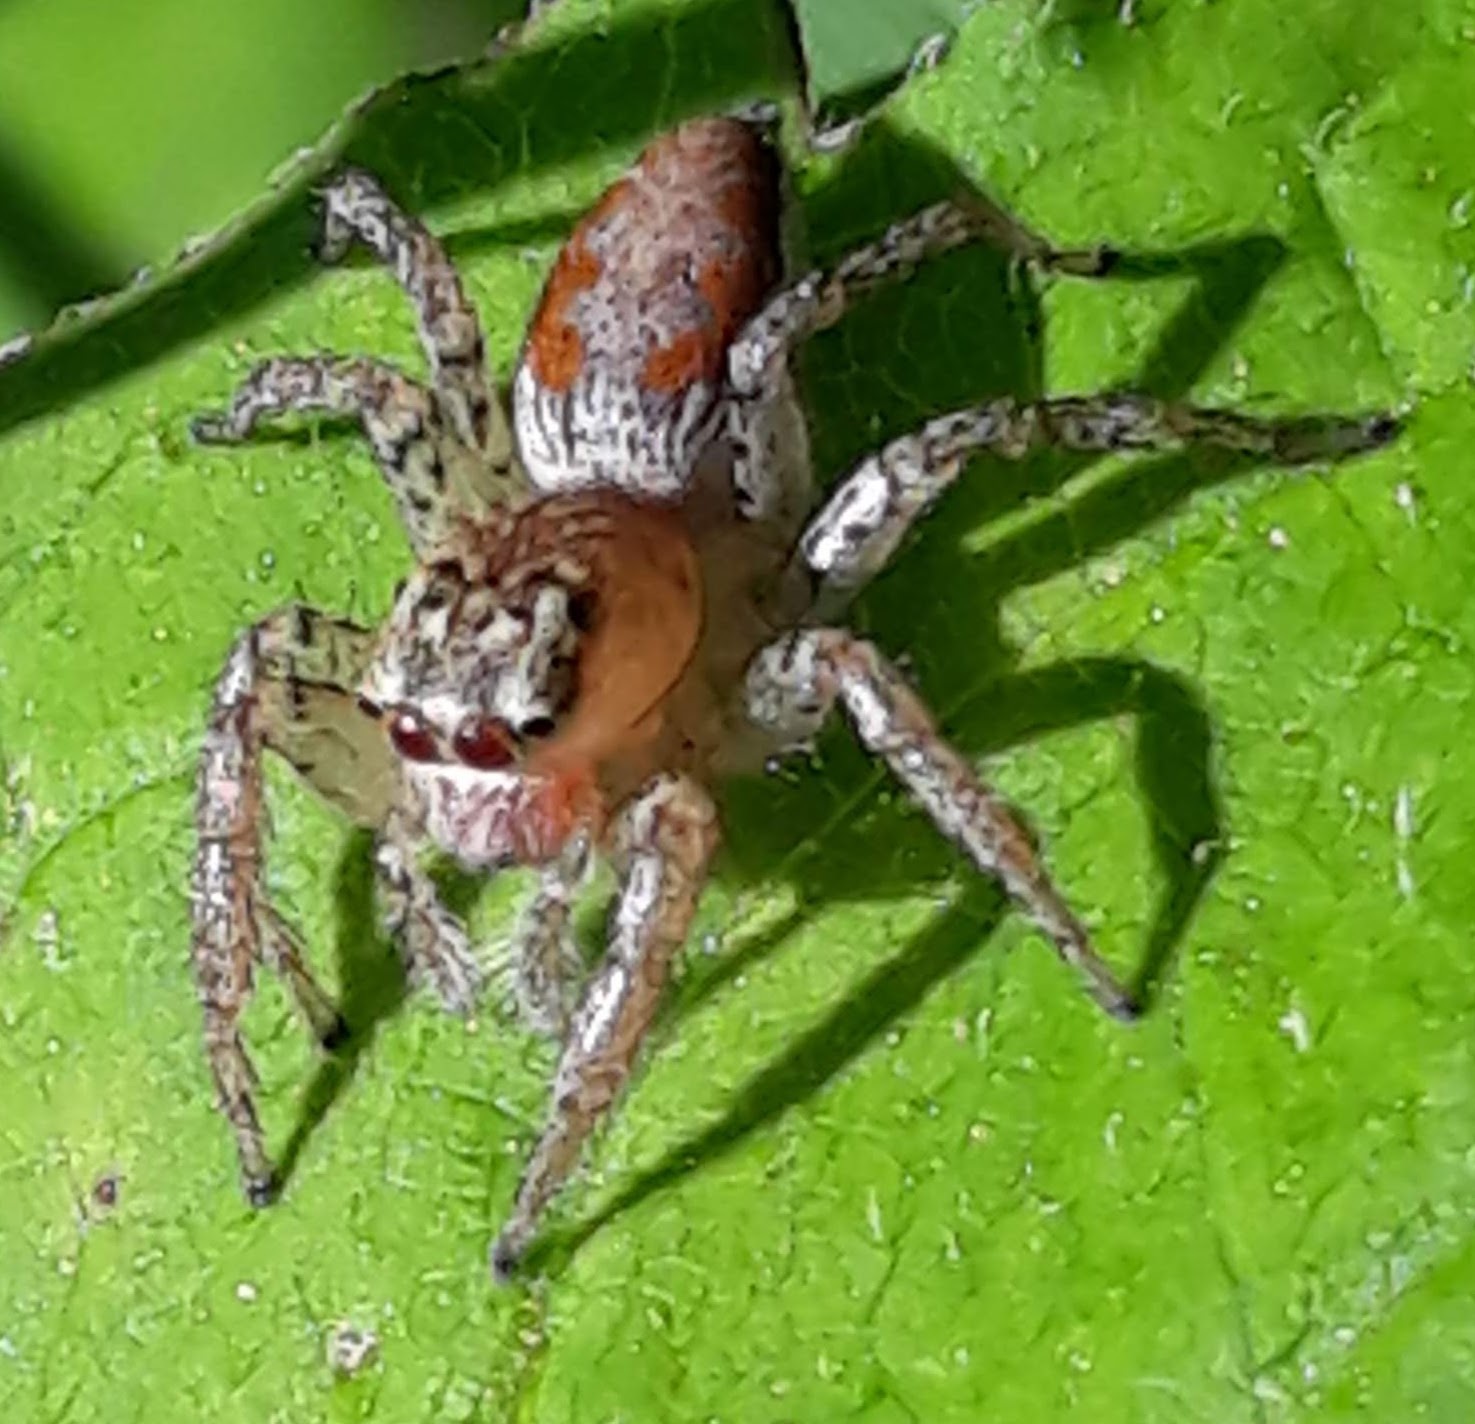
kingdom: Animalia
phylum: Arthropoda
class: Arachnida
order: Araneae
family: Salticidae
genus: Maevia
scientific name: Maevia inclemens
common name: Dimorphic jumper
